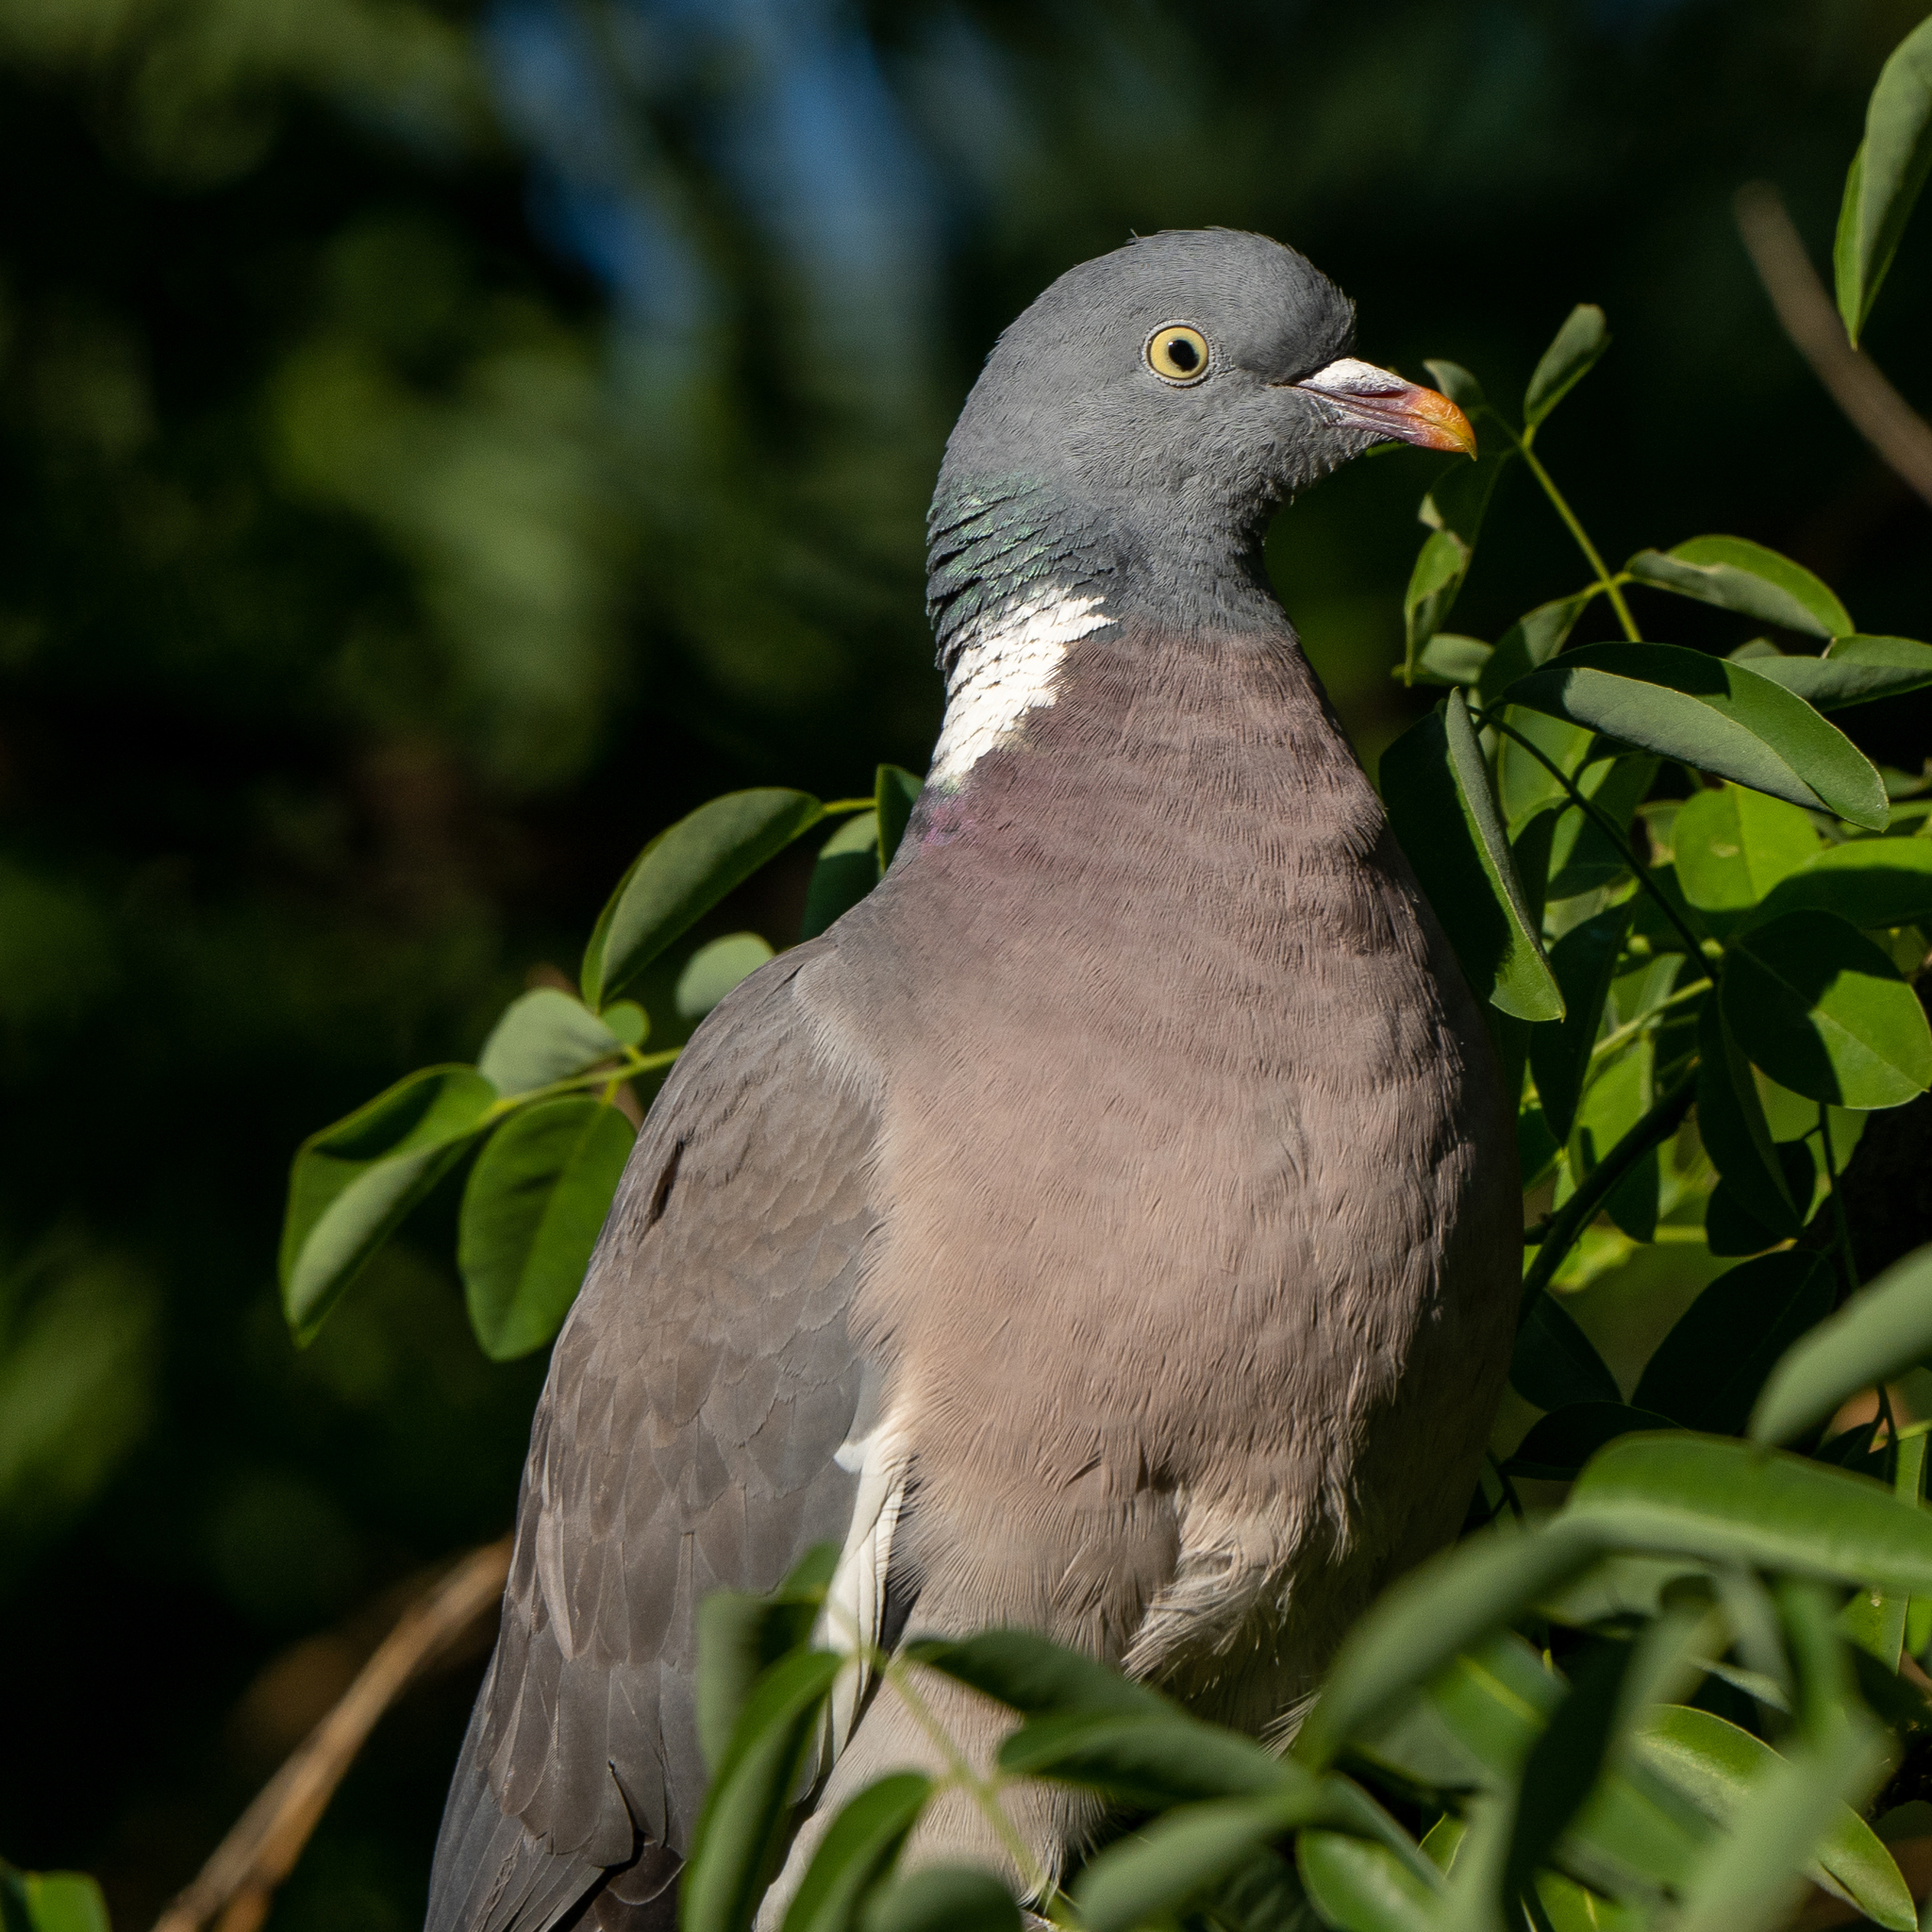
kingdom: Animalia
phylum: Chordata
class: Aves
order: Columbiformes
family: Columbidae
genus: Columba
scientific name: Columba palumbus
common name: Common wood pigeon
